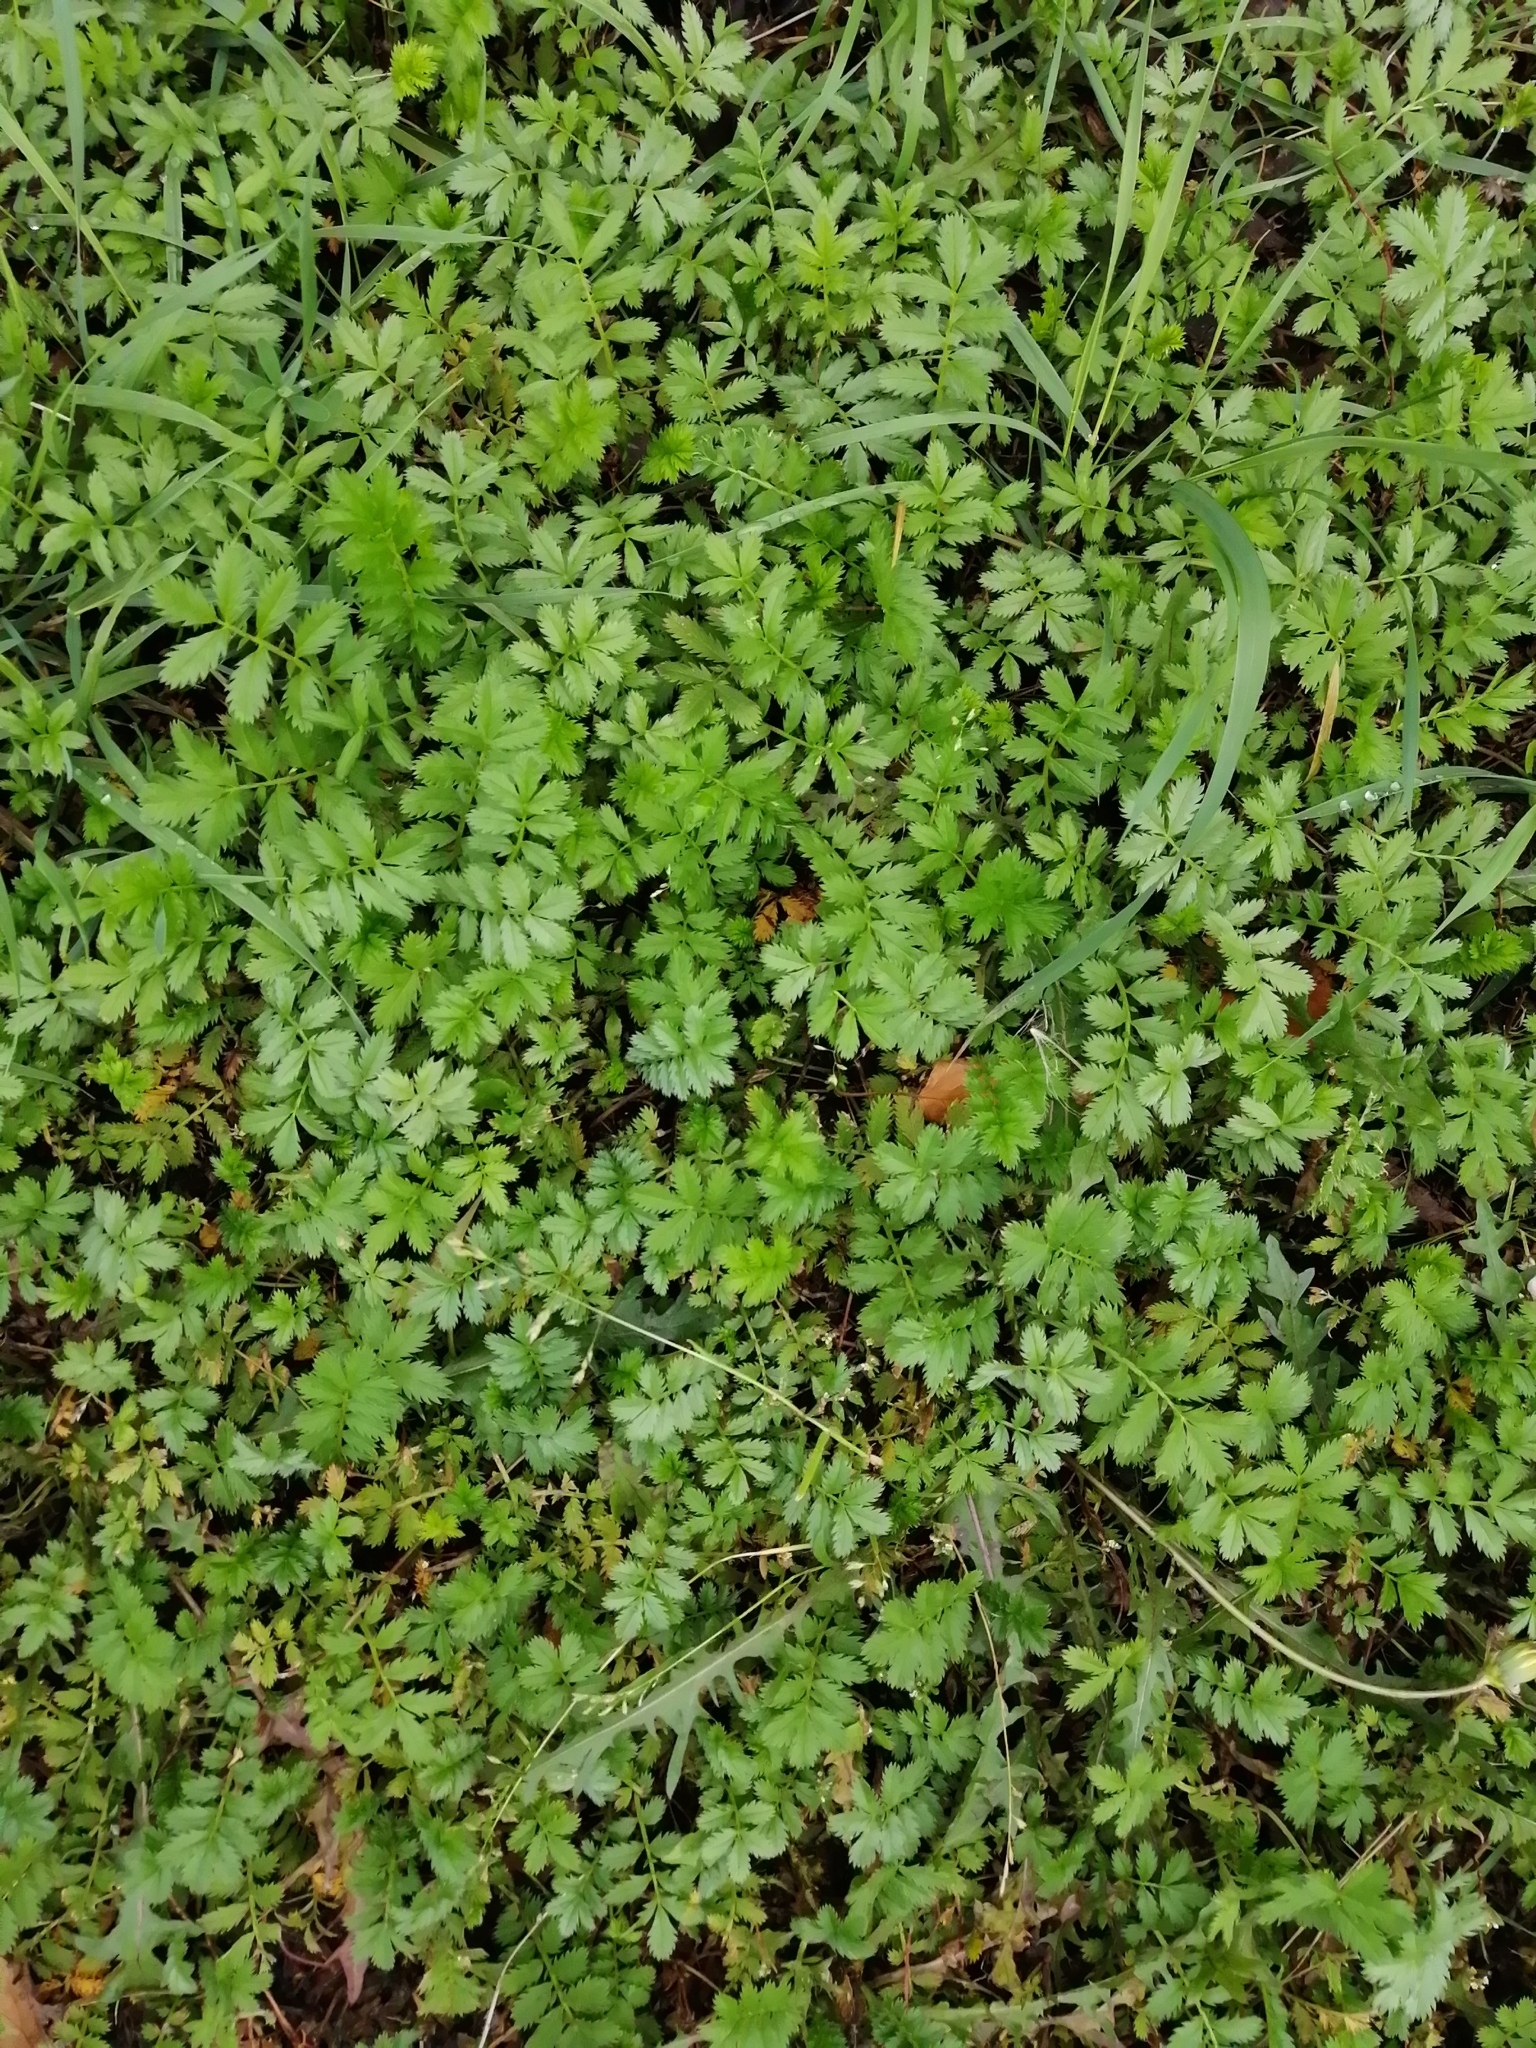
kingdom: Plantae
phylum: Tracheophyta
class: Magnoliopsida
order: Rosales
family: Rosaceae
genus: Argentina
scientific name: Argentina anserina
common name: Common silverweed
